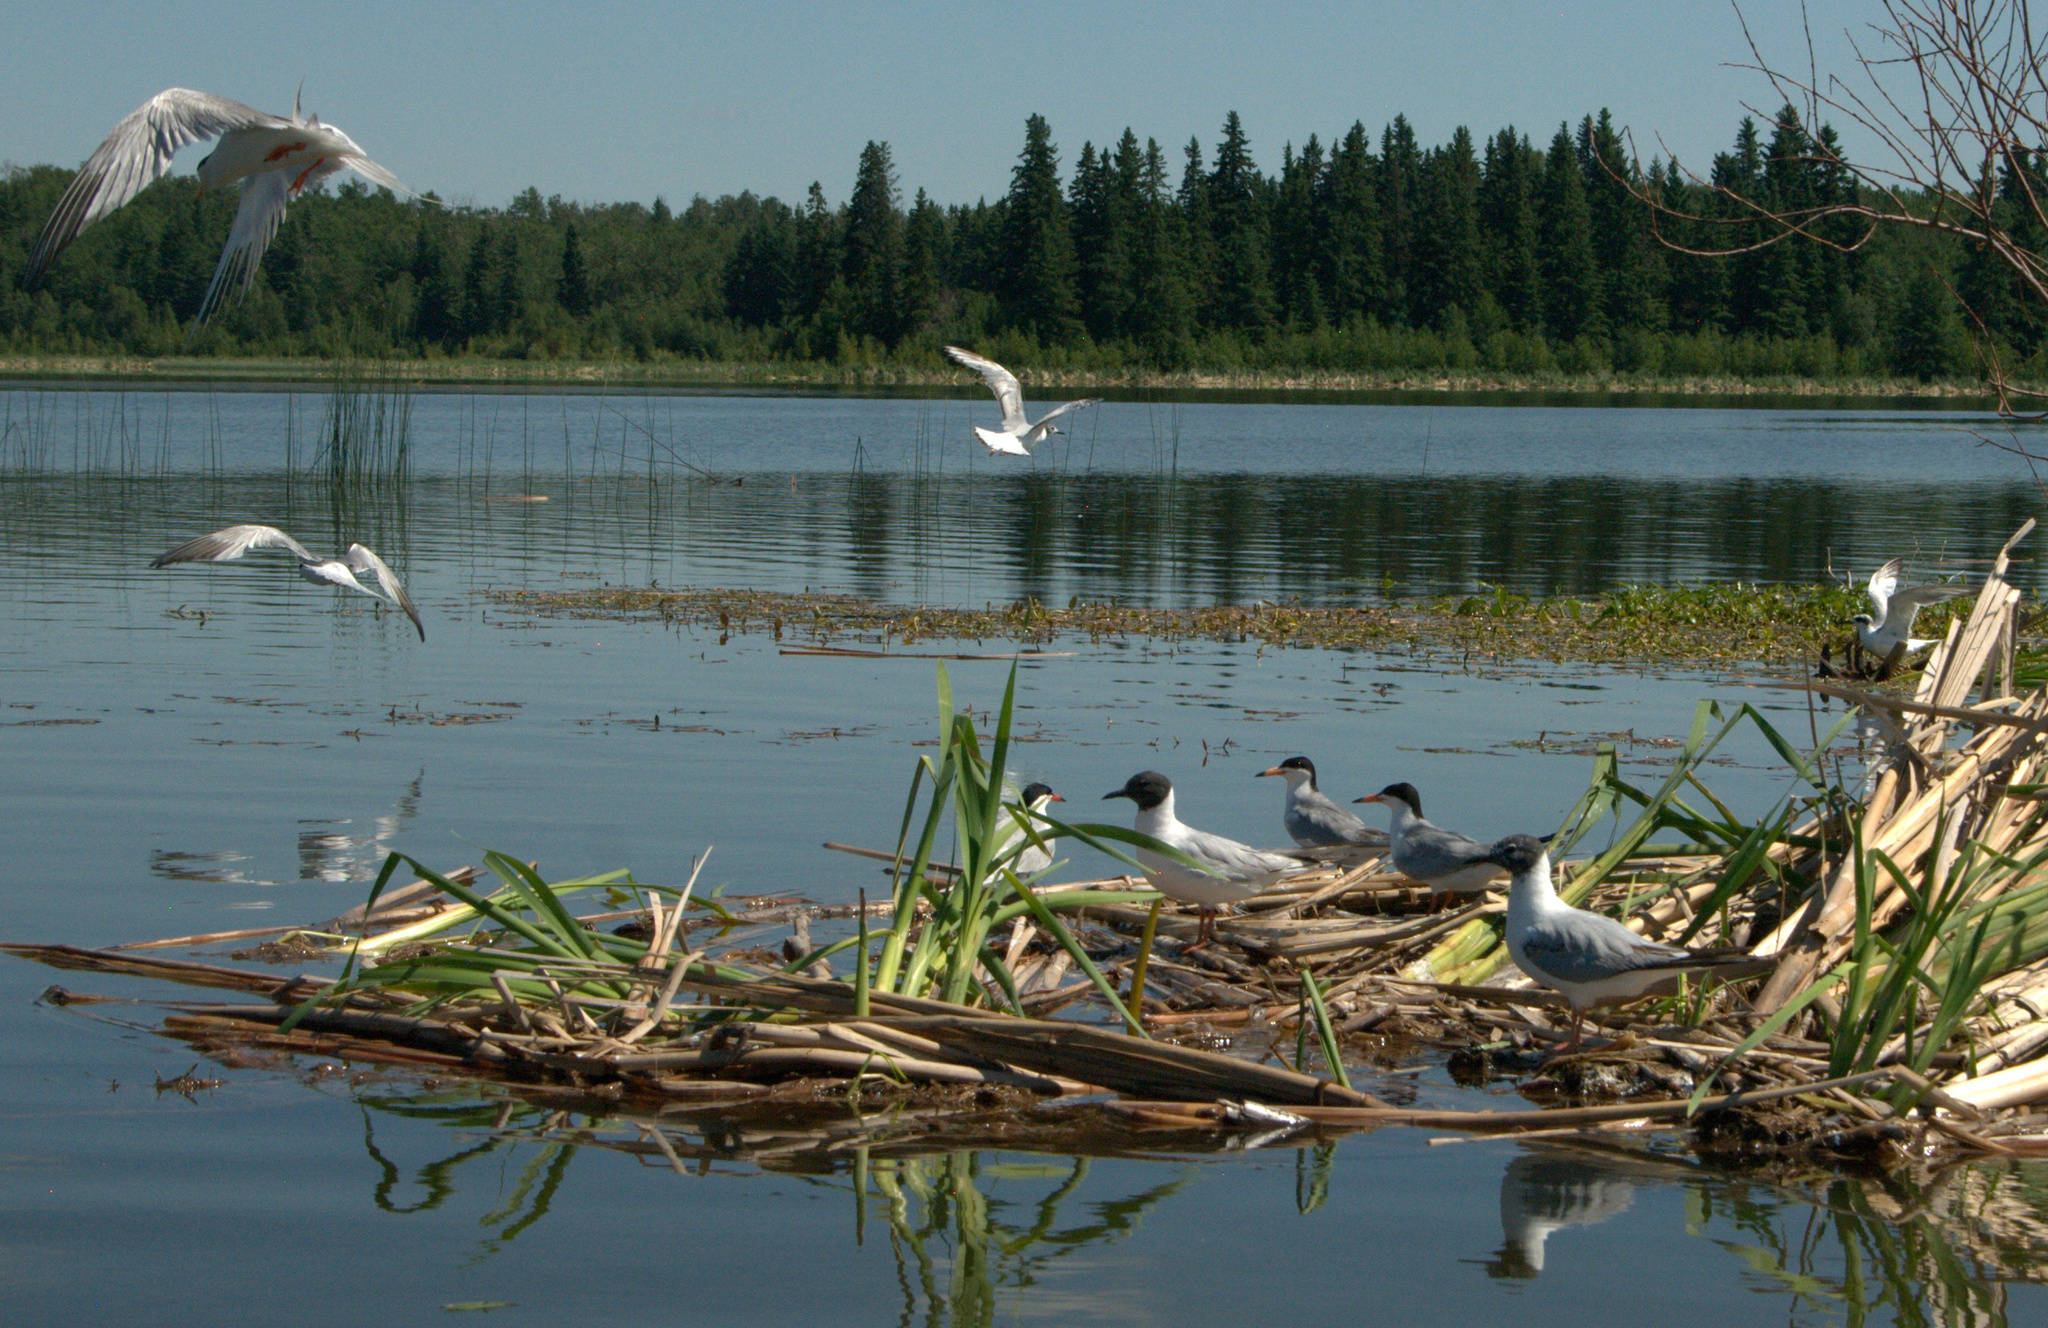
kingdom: Animalia
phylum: Chordata
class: Aves
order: Charadriiformes
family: Laridae
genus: Chroicocephalus
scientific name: Chroicocephalus philadelphia
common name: Bonaparte's gull
